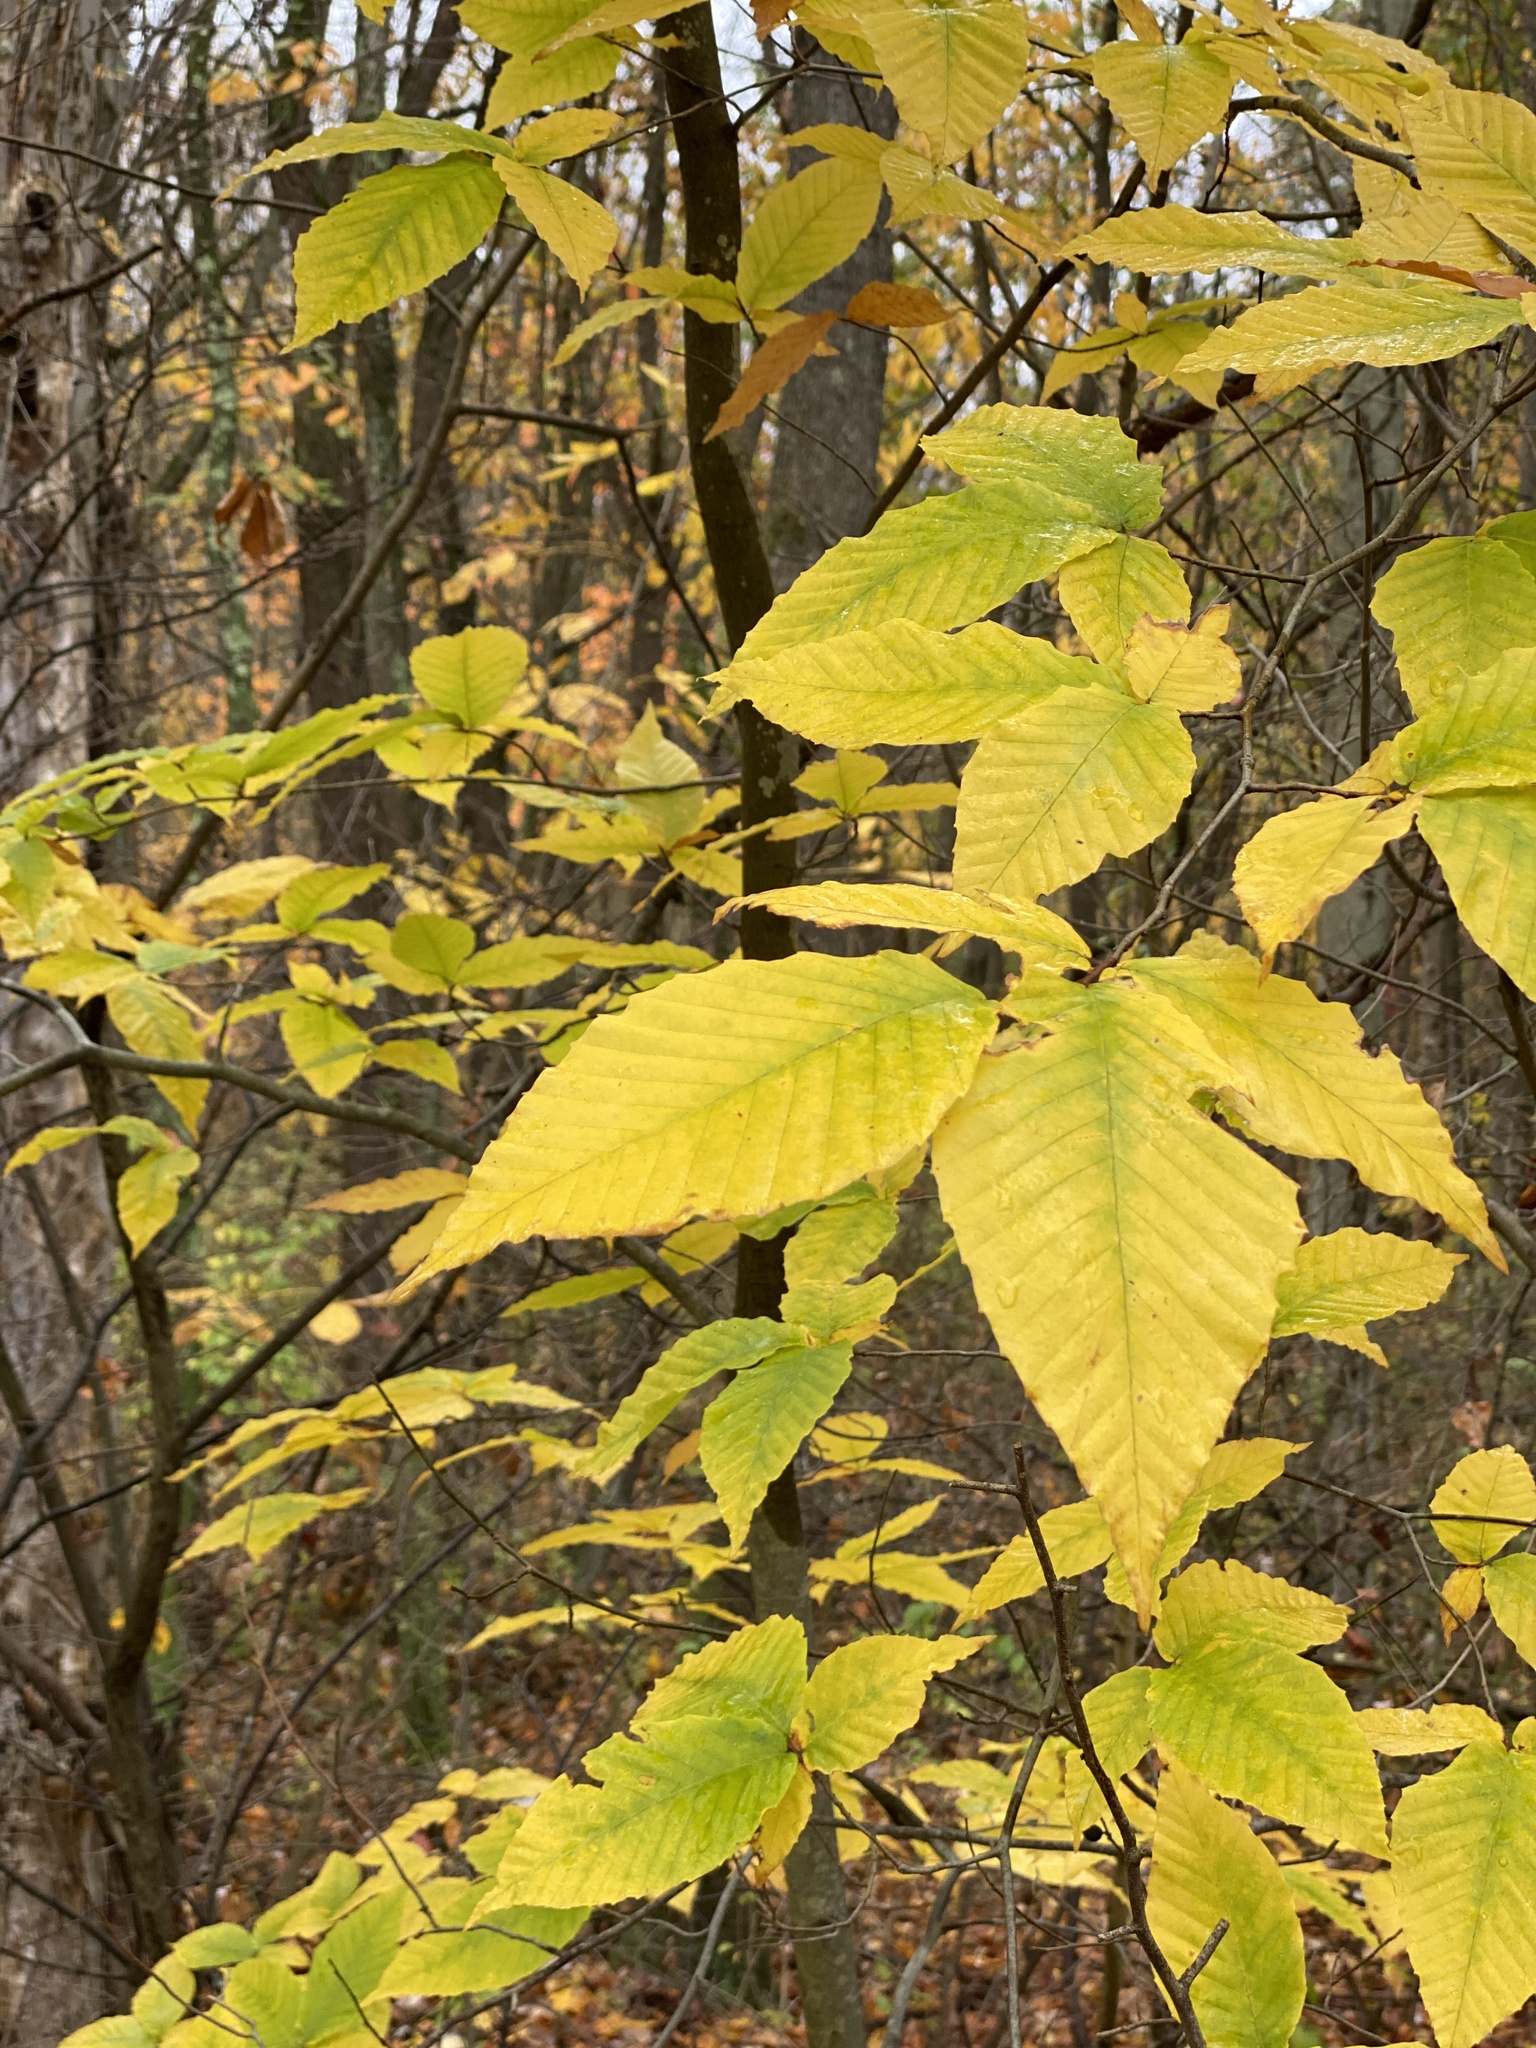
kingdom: Plantae
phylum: Tracheophyta
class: Magnoliopsida
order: Fagales
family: Fagaceae
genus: Fagus
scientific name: Fagus grandifolia
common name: American beech
